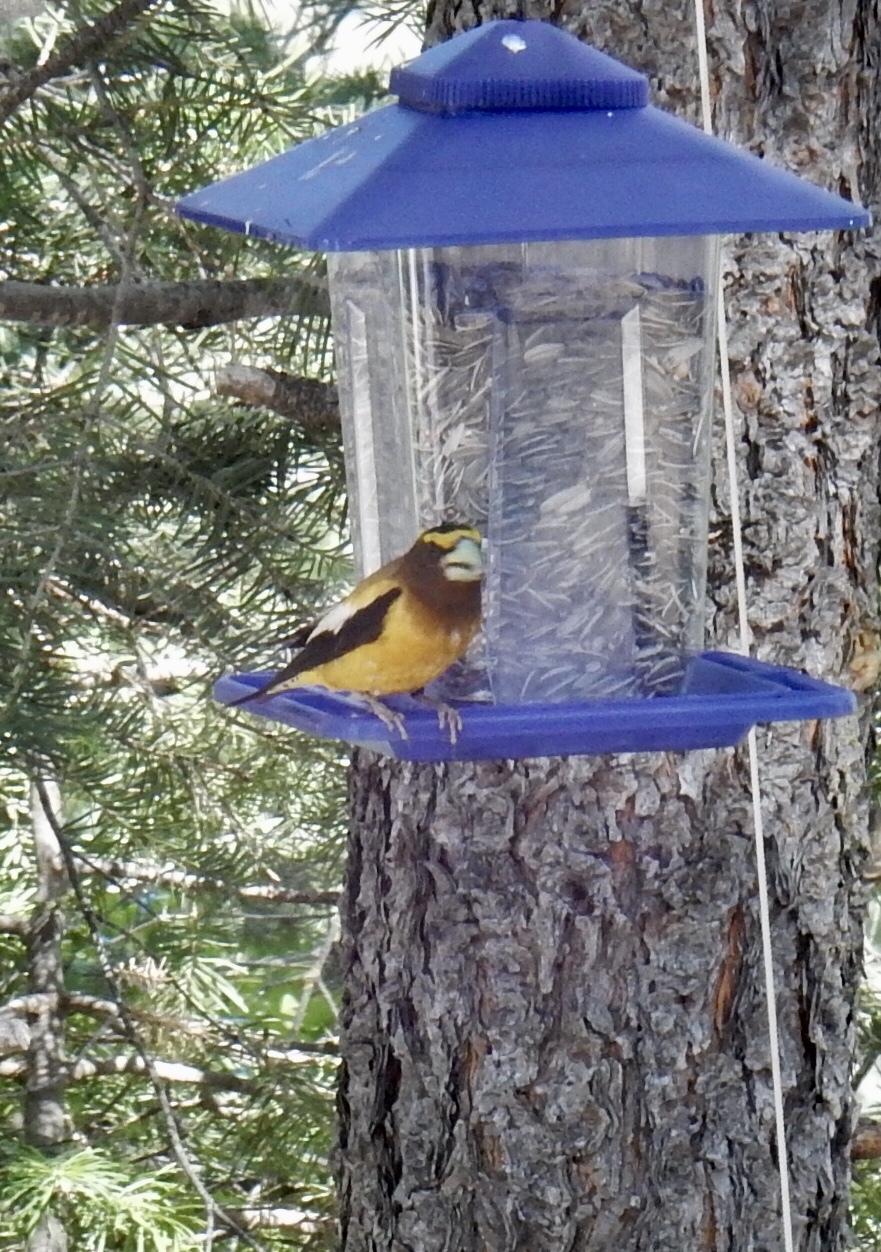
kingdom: Animalia
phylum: Chordata
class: Aves
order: Passeriformes
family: Fringillidae
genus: Hesperiphona
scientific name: Hesperiphona vespertina
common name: Evening grosbeak
